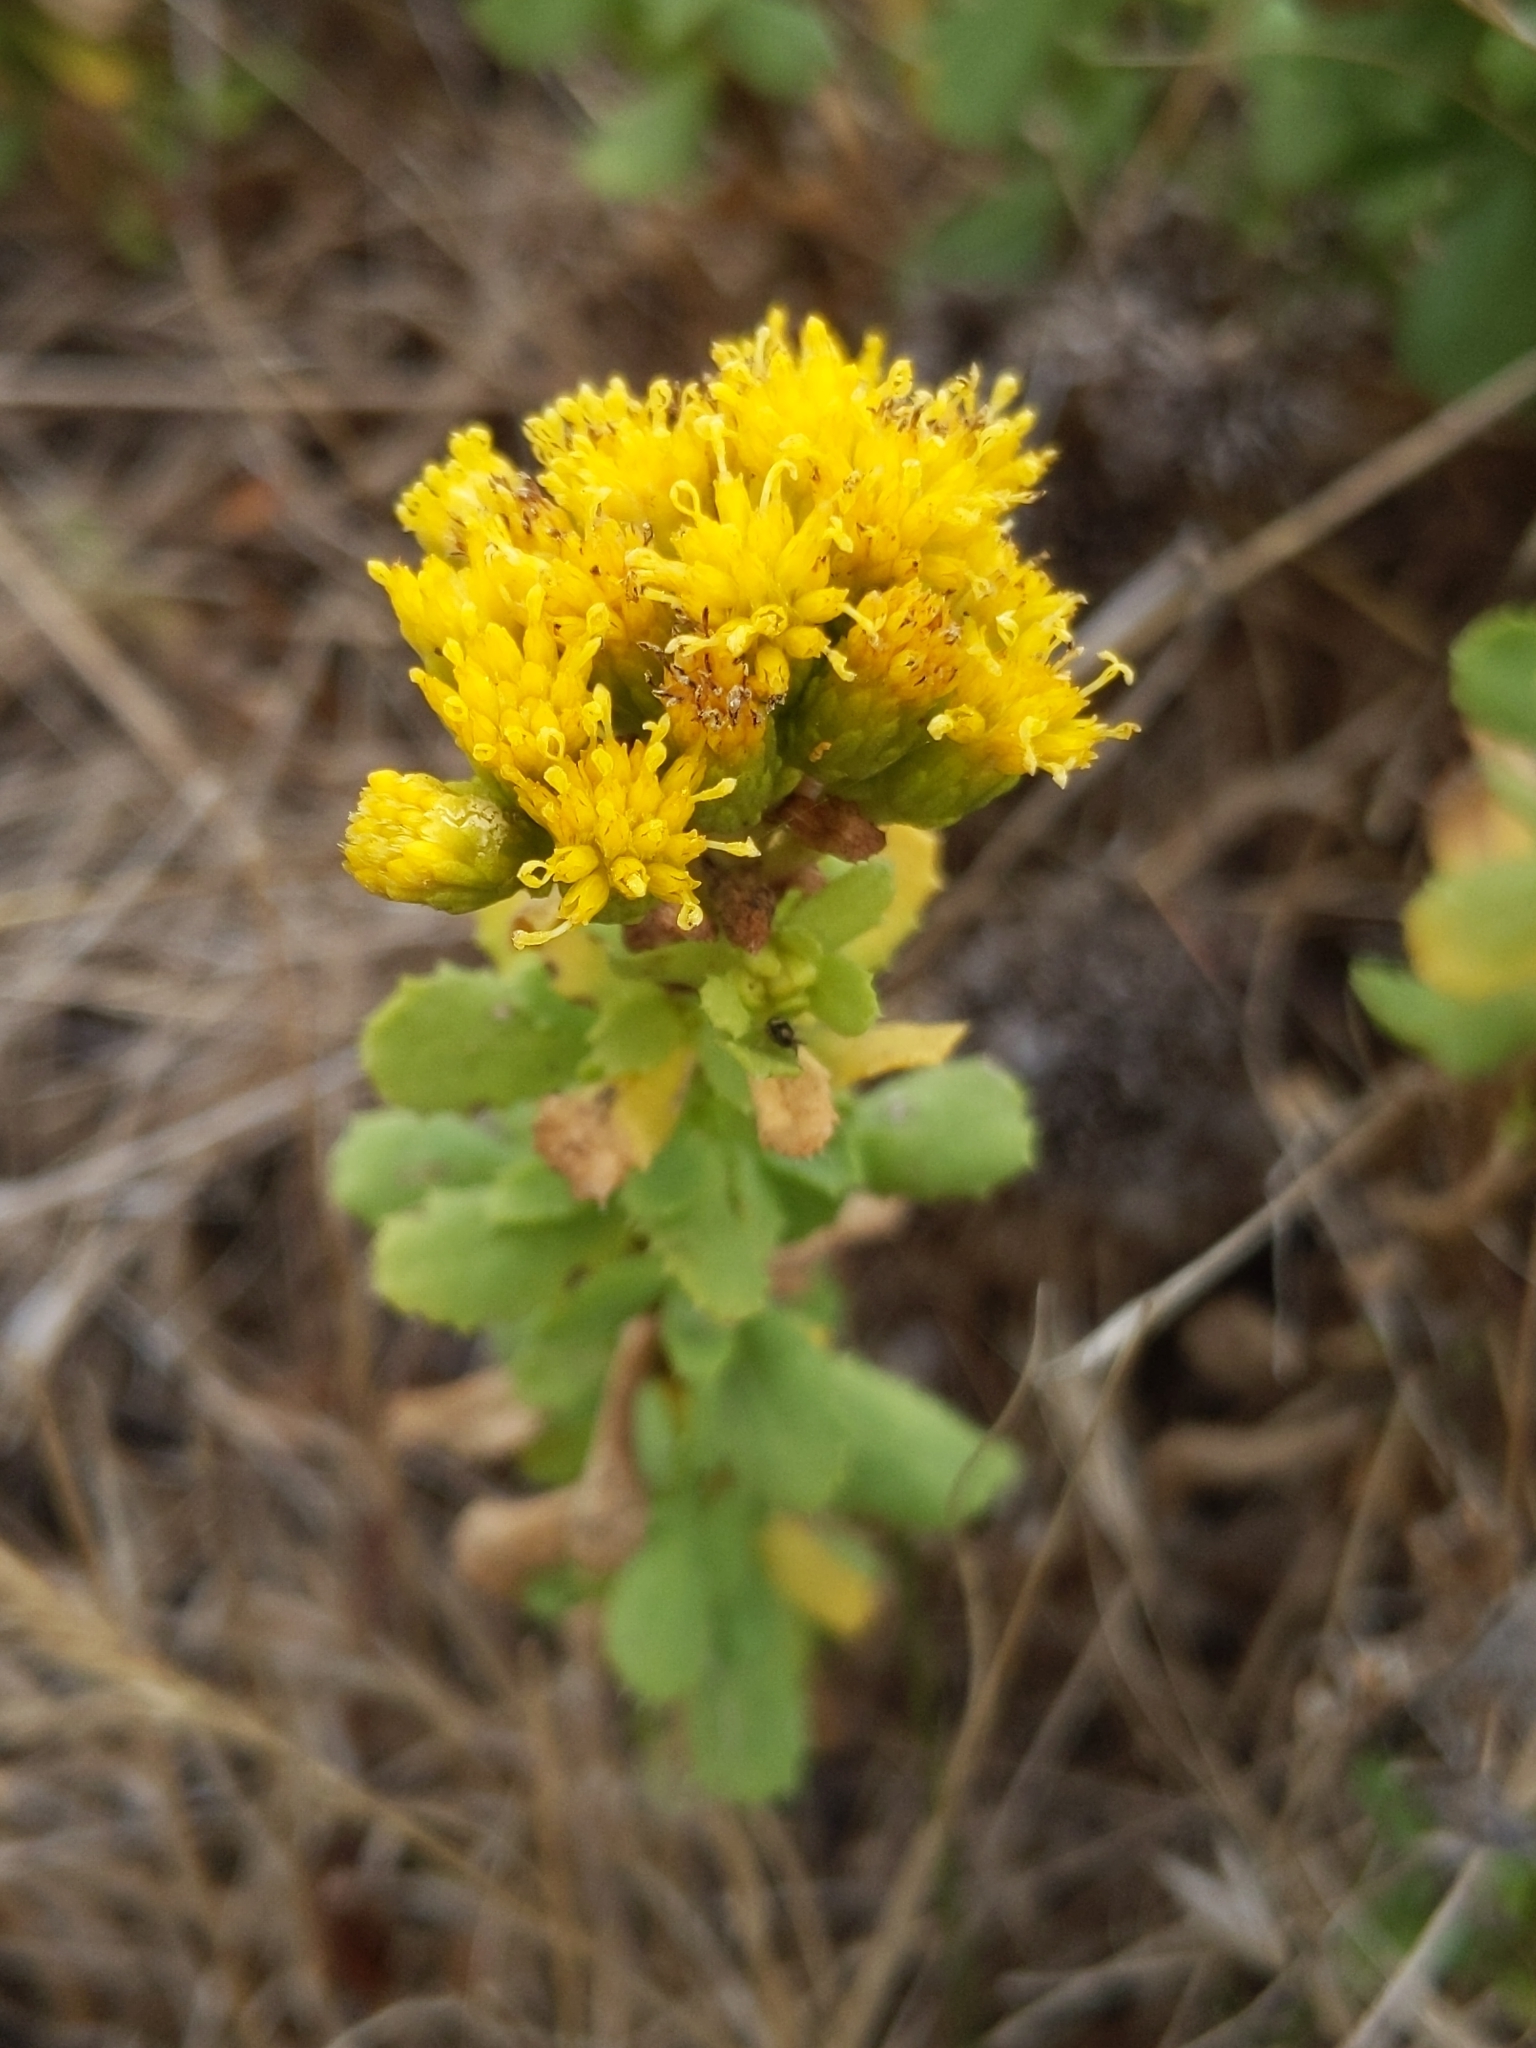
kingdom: Plantae
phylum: Tracheophyta
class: Magnoliopsida
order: Asterales
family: Asteraceae
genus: Isocoma
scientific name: Isocoma menziesii
